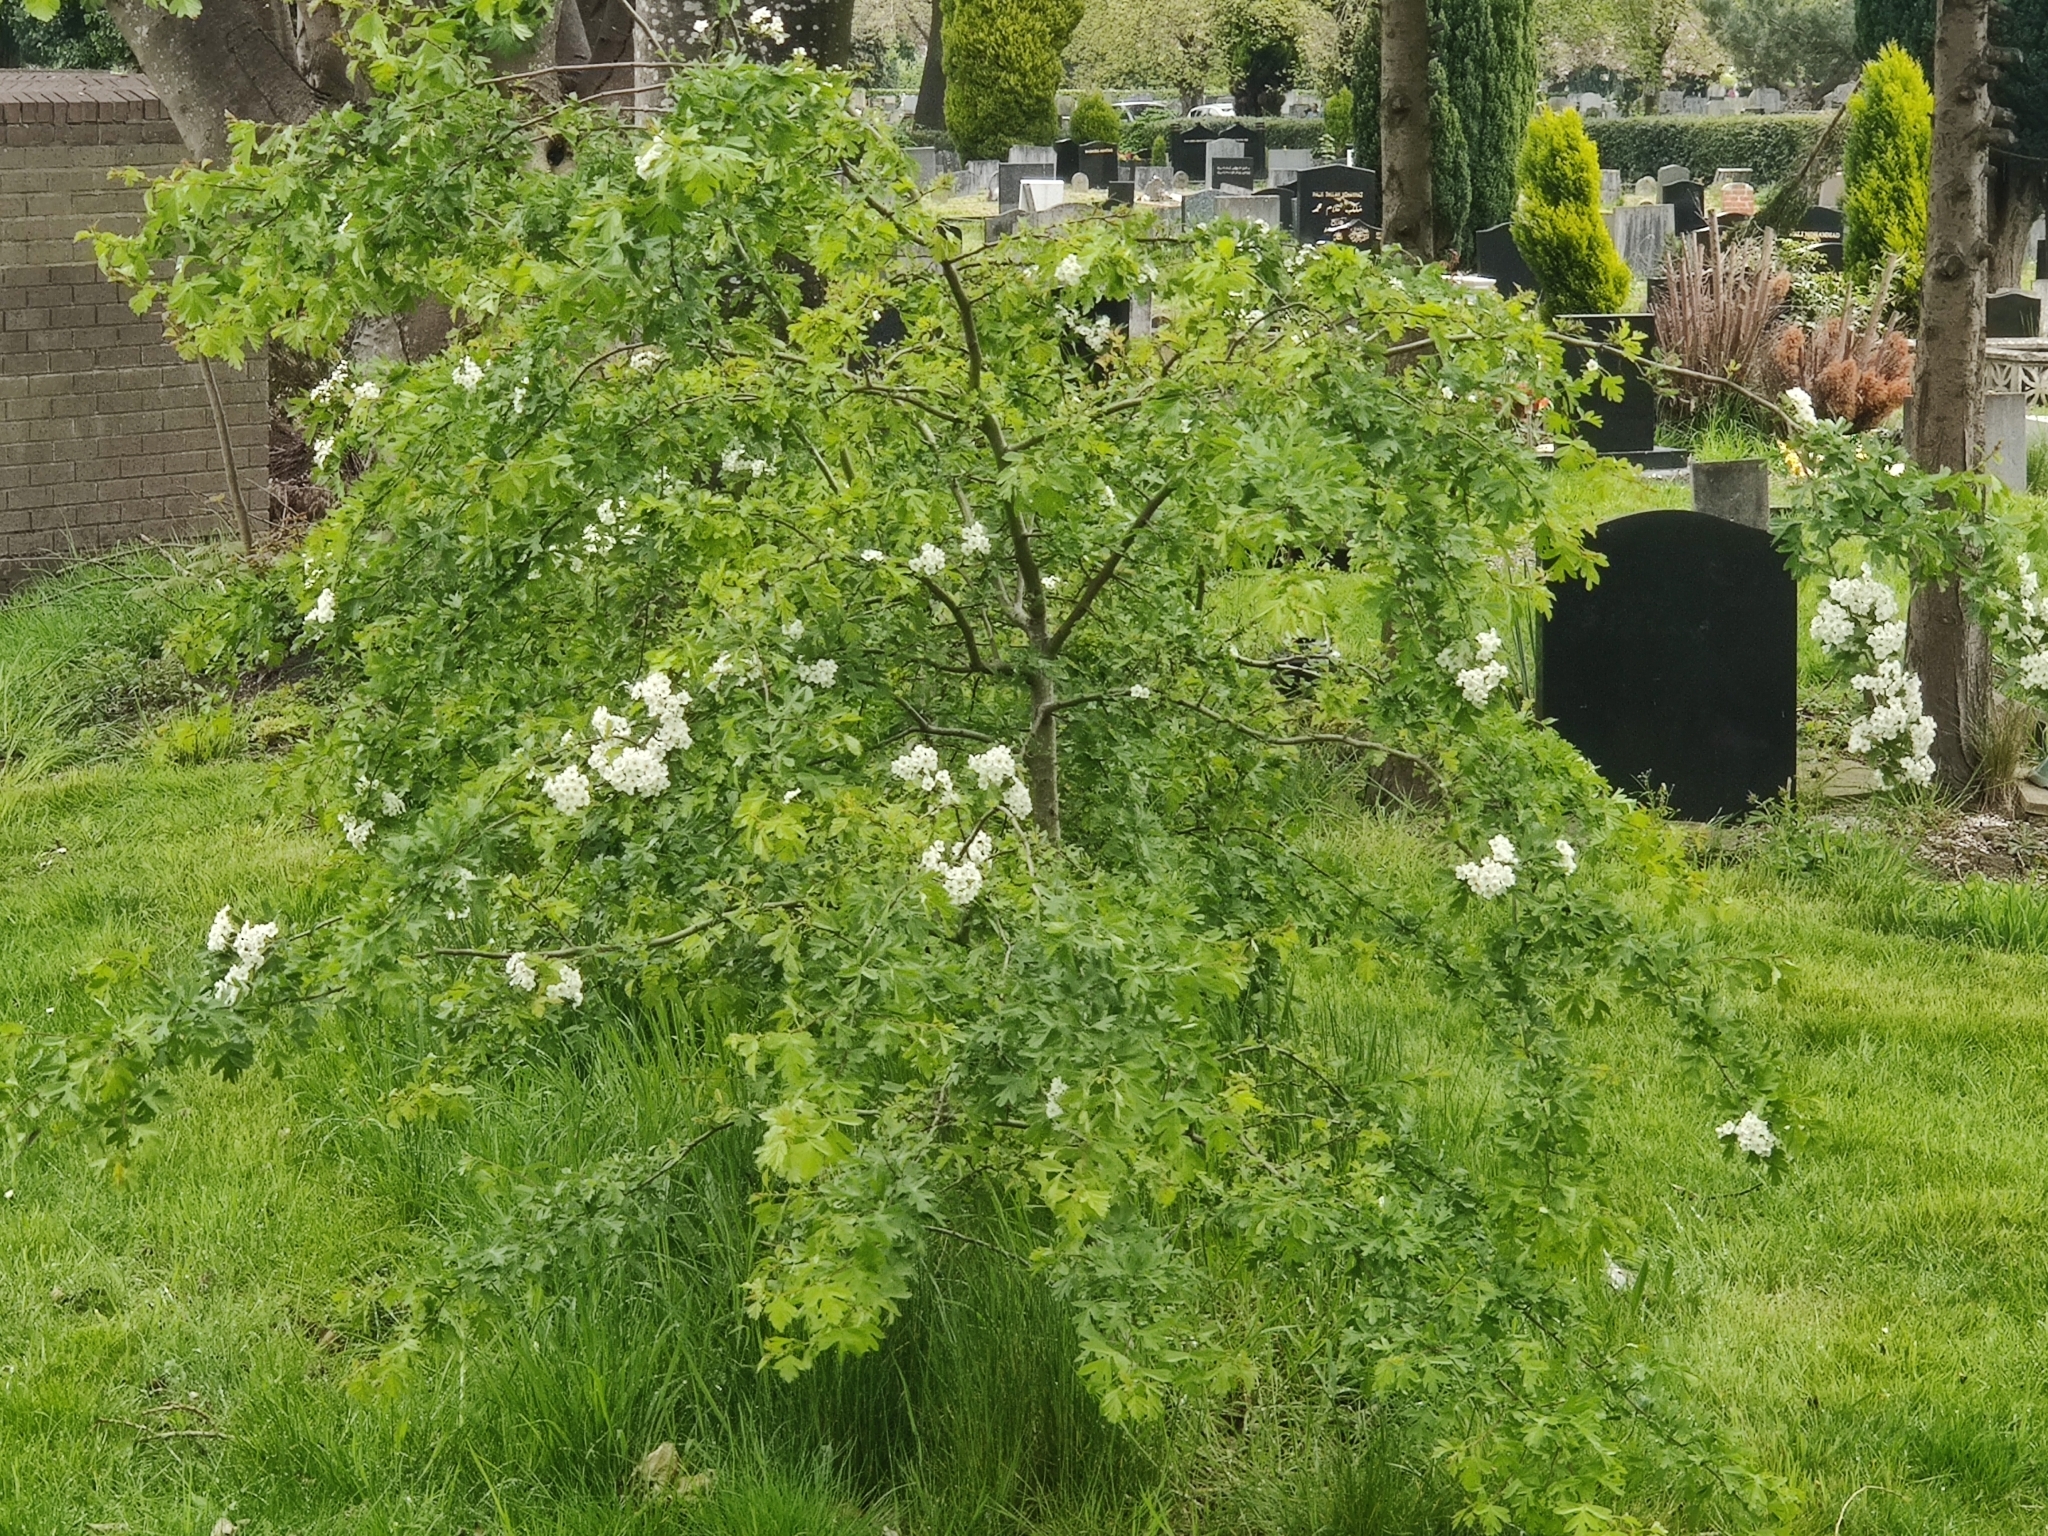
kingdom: Plantae
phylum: Tracheophyta
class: Magnoliopsida
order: Rosales
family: Rosaceae
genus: Crataegus
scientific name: Crataegus monogyna
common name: Hawthorn
